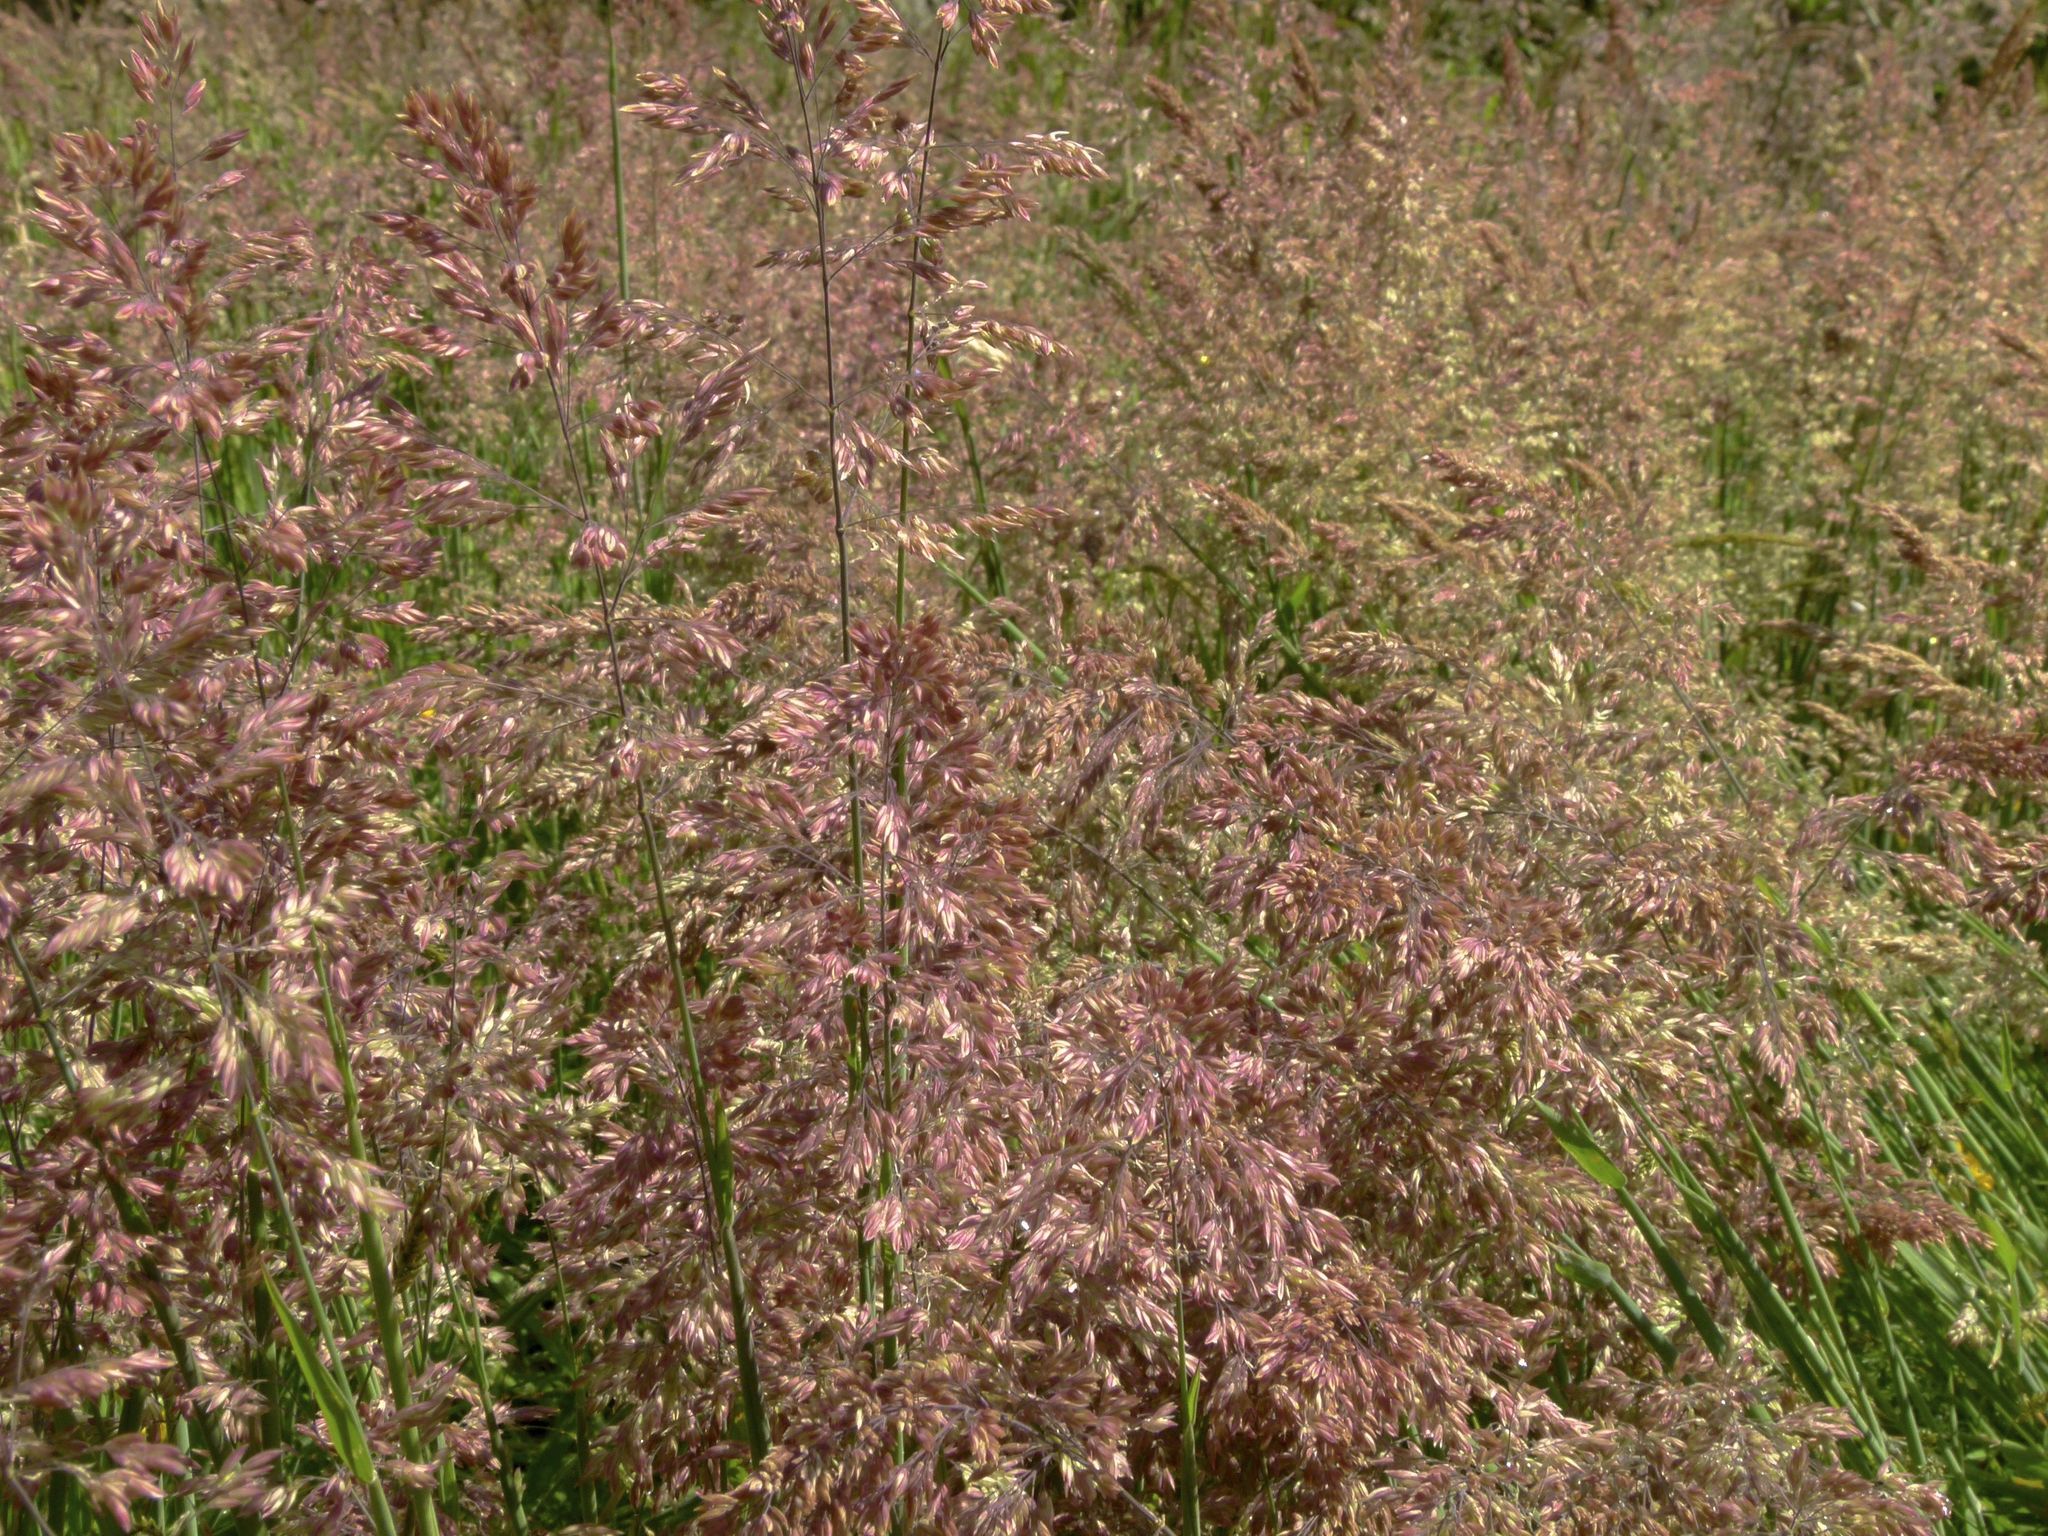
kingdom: Plantae
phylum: Tracheophyta
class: Liliopsida
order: Poales
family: Poaceae
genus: Holcus
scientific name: Holcus lanatus
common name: Yorkshire-fog
